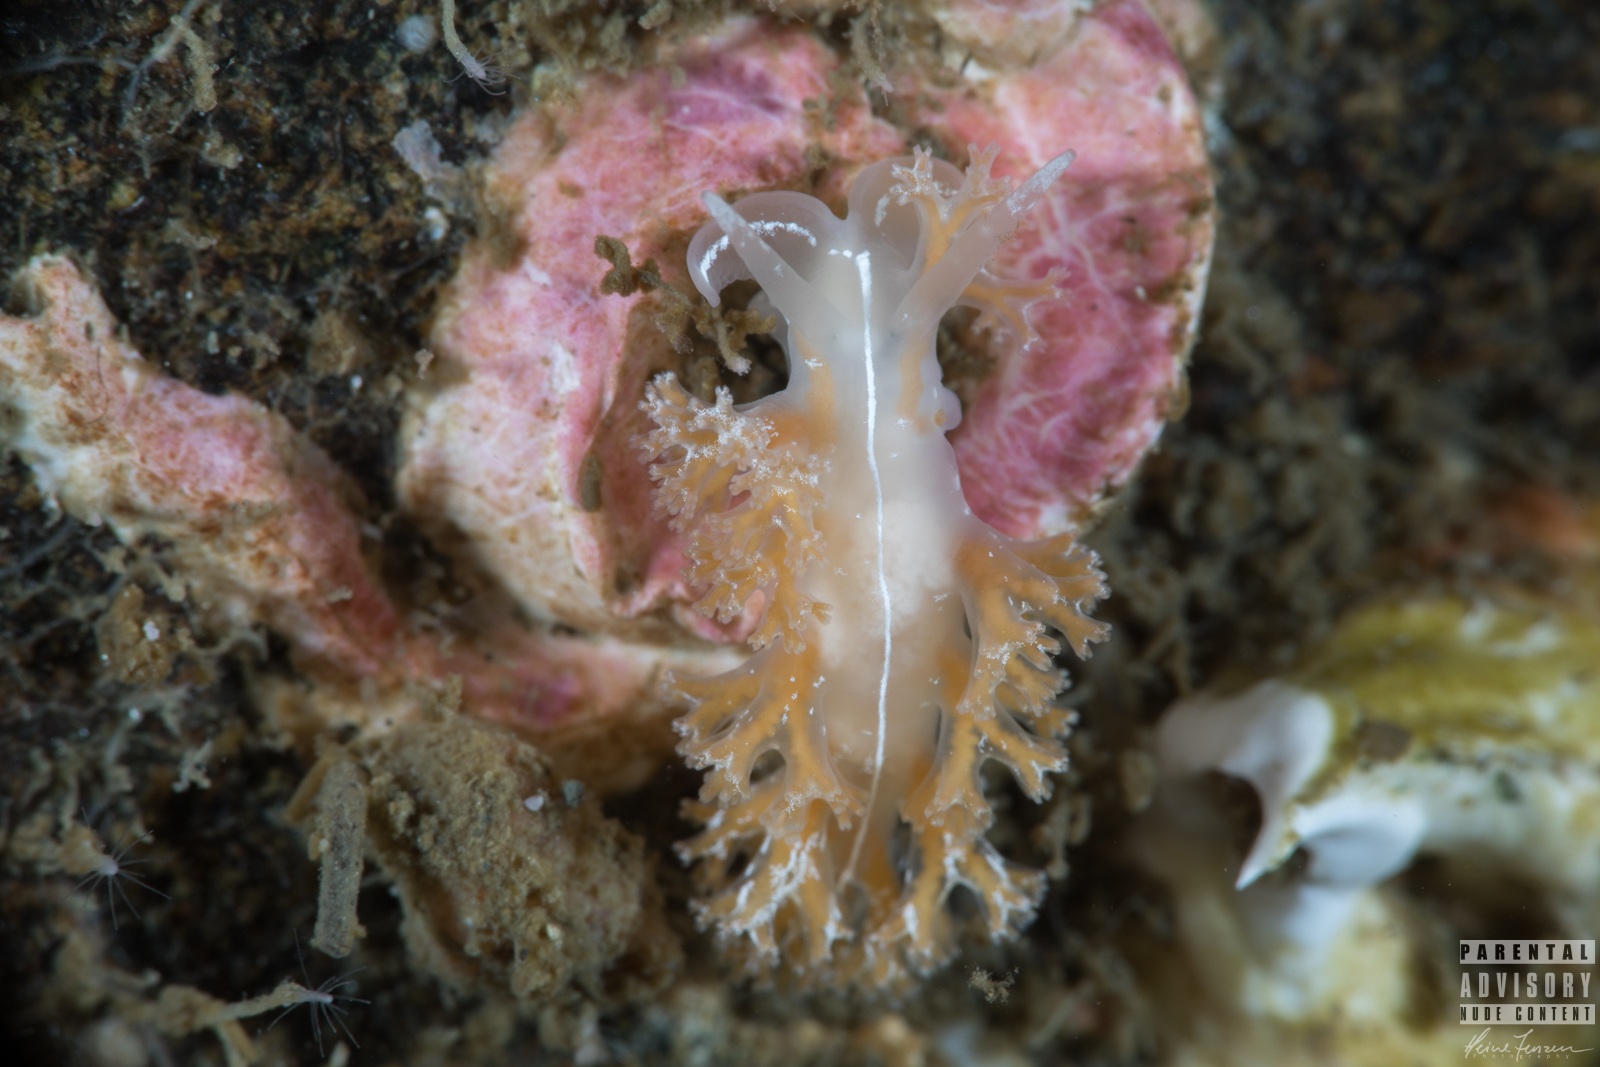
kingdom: Animalia
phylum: Mollusca
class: Gastropoda
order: Nudibranchia
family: Heroidae
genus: Hero
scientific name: Hero formosa
